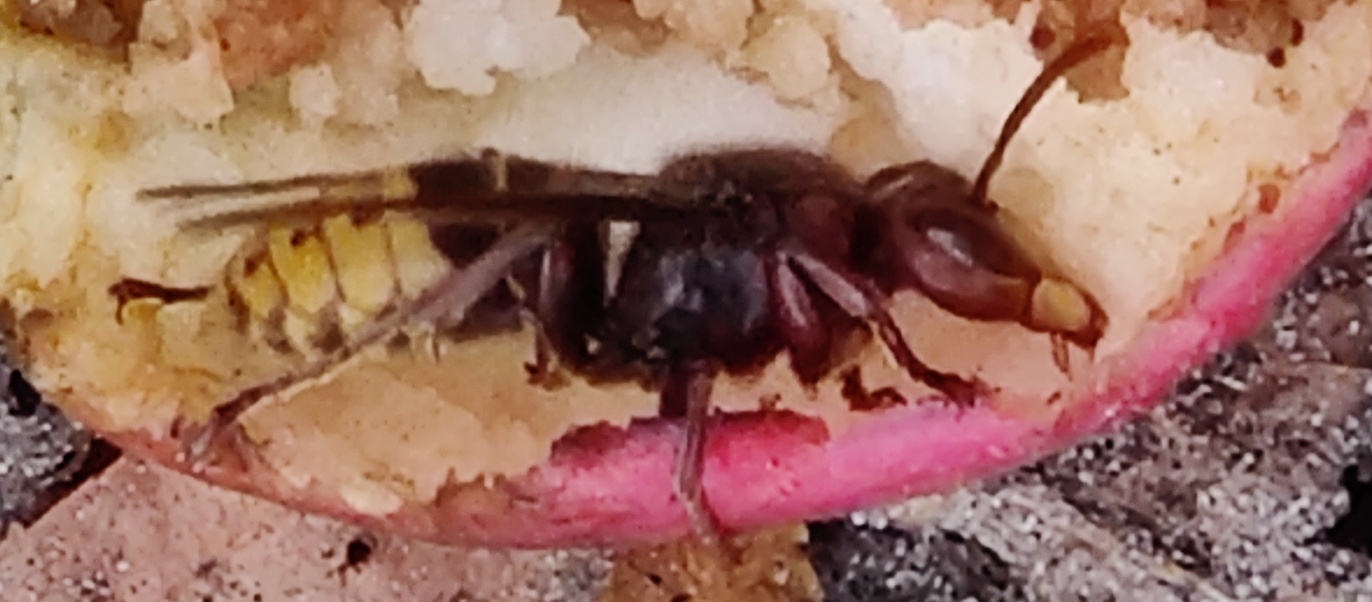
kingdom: Animalia
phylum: Arthropoda
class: Insecta
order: Hymenoptera
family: Vespidae
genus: Vespa
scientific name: Vespa crabro
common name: Hornet
